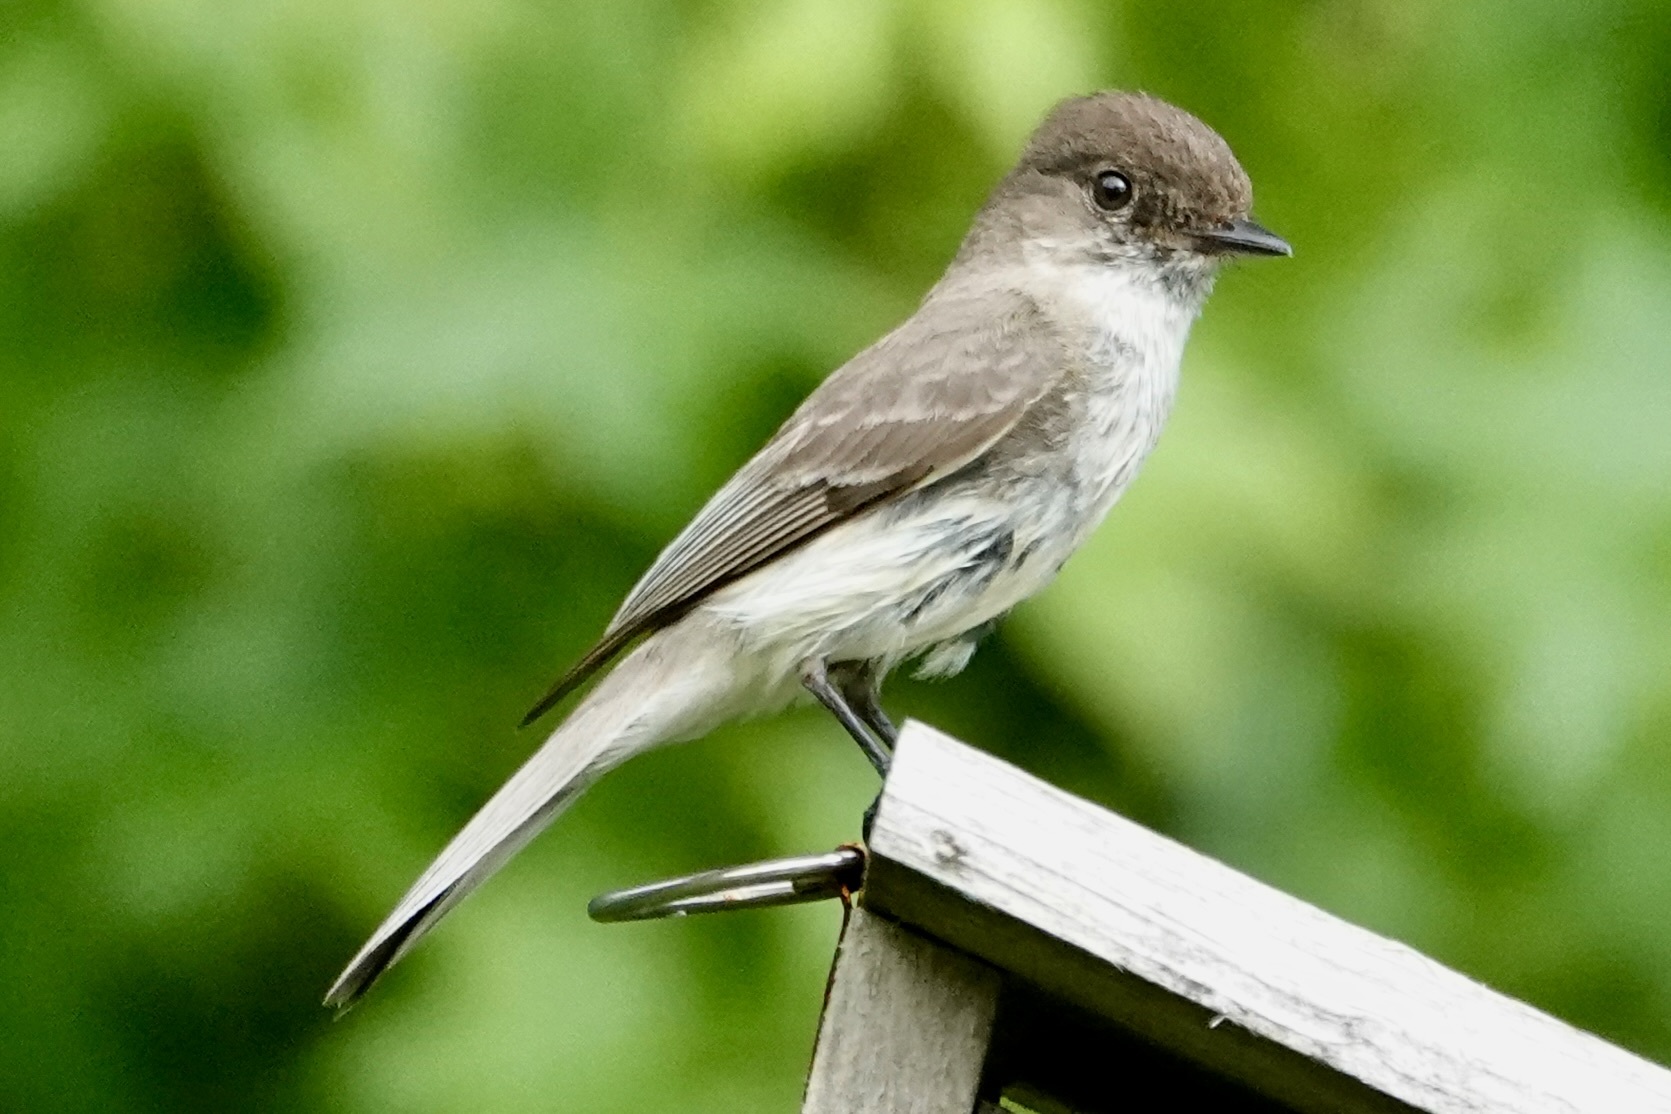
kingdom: Animalia
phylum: Chordata
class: Aves
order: Passeriformes
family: Tyrannidae
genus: Sayornis
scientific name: Sayornis phoebe
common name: Eastern phoebe
